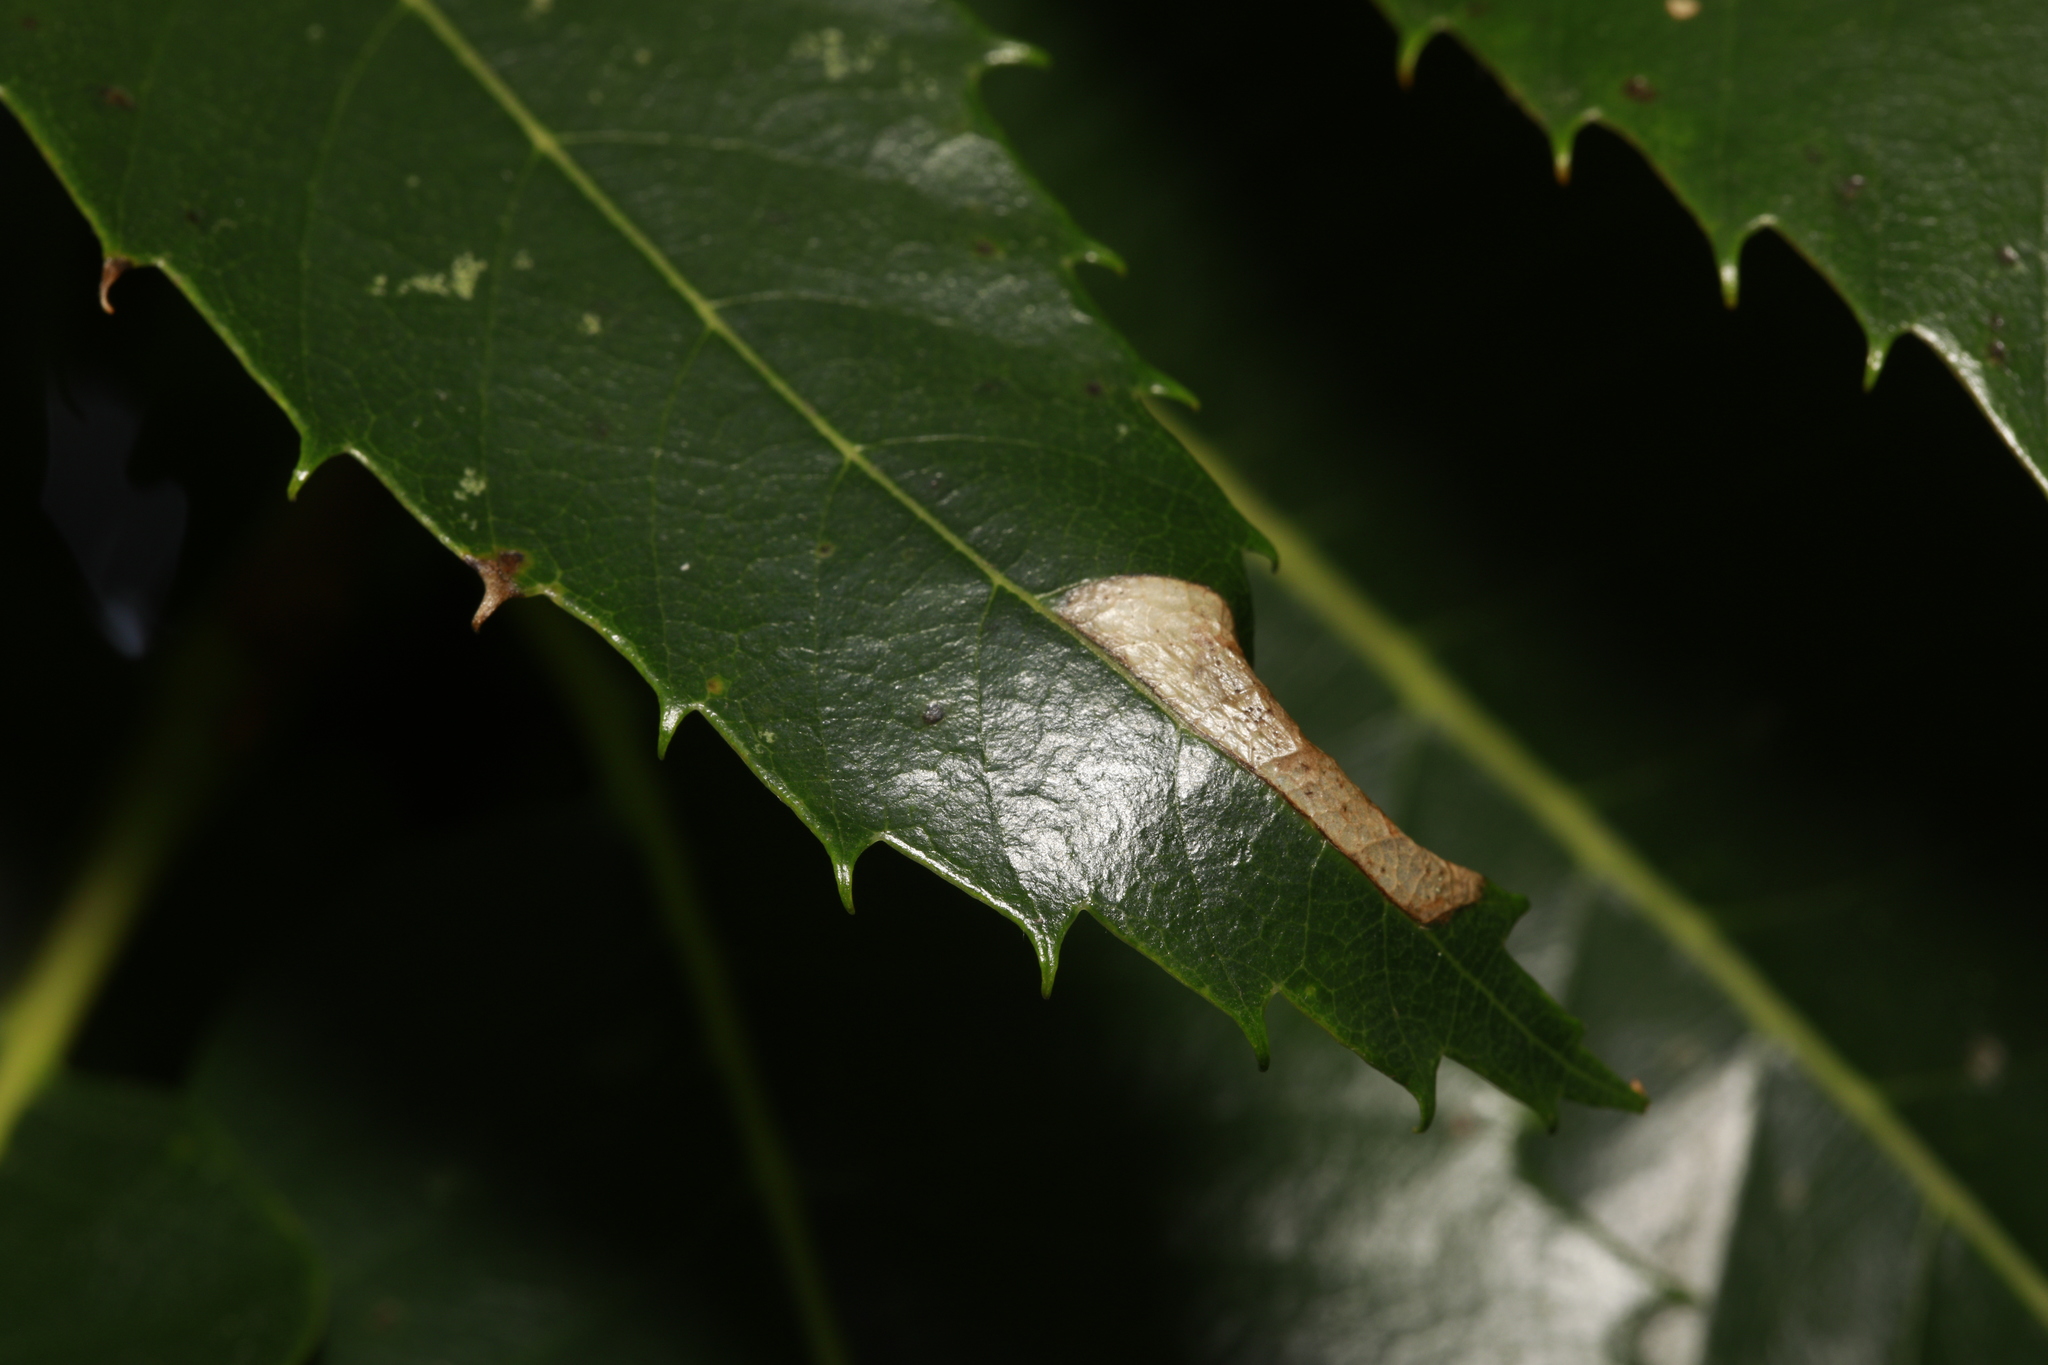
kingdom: Animalia
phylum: Arthropoda
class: Insecta
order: Lepidoptera
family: Gracillariidae
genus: Phyllonorycter
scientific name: Phyllonorycter messaniella
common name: Garden midget
